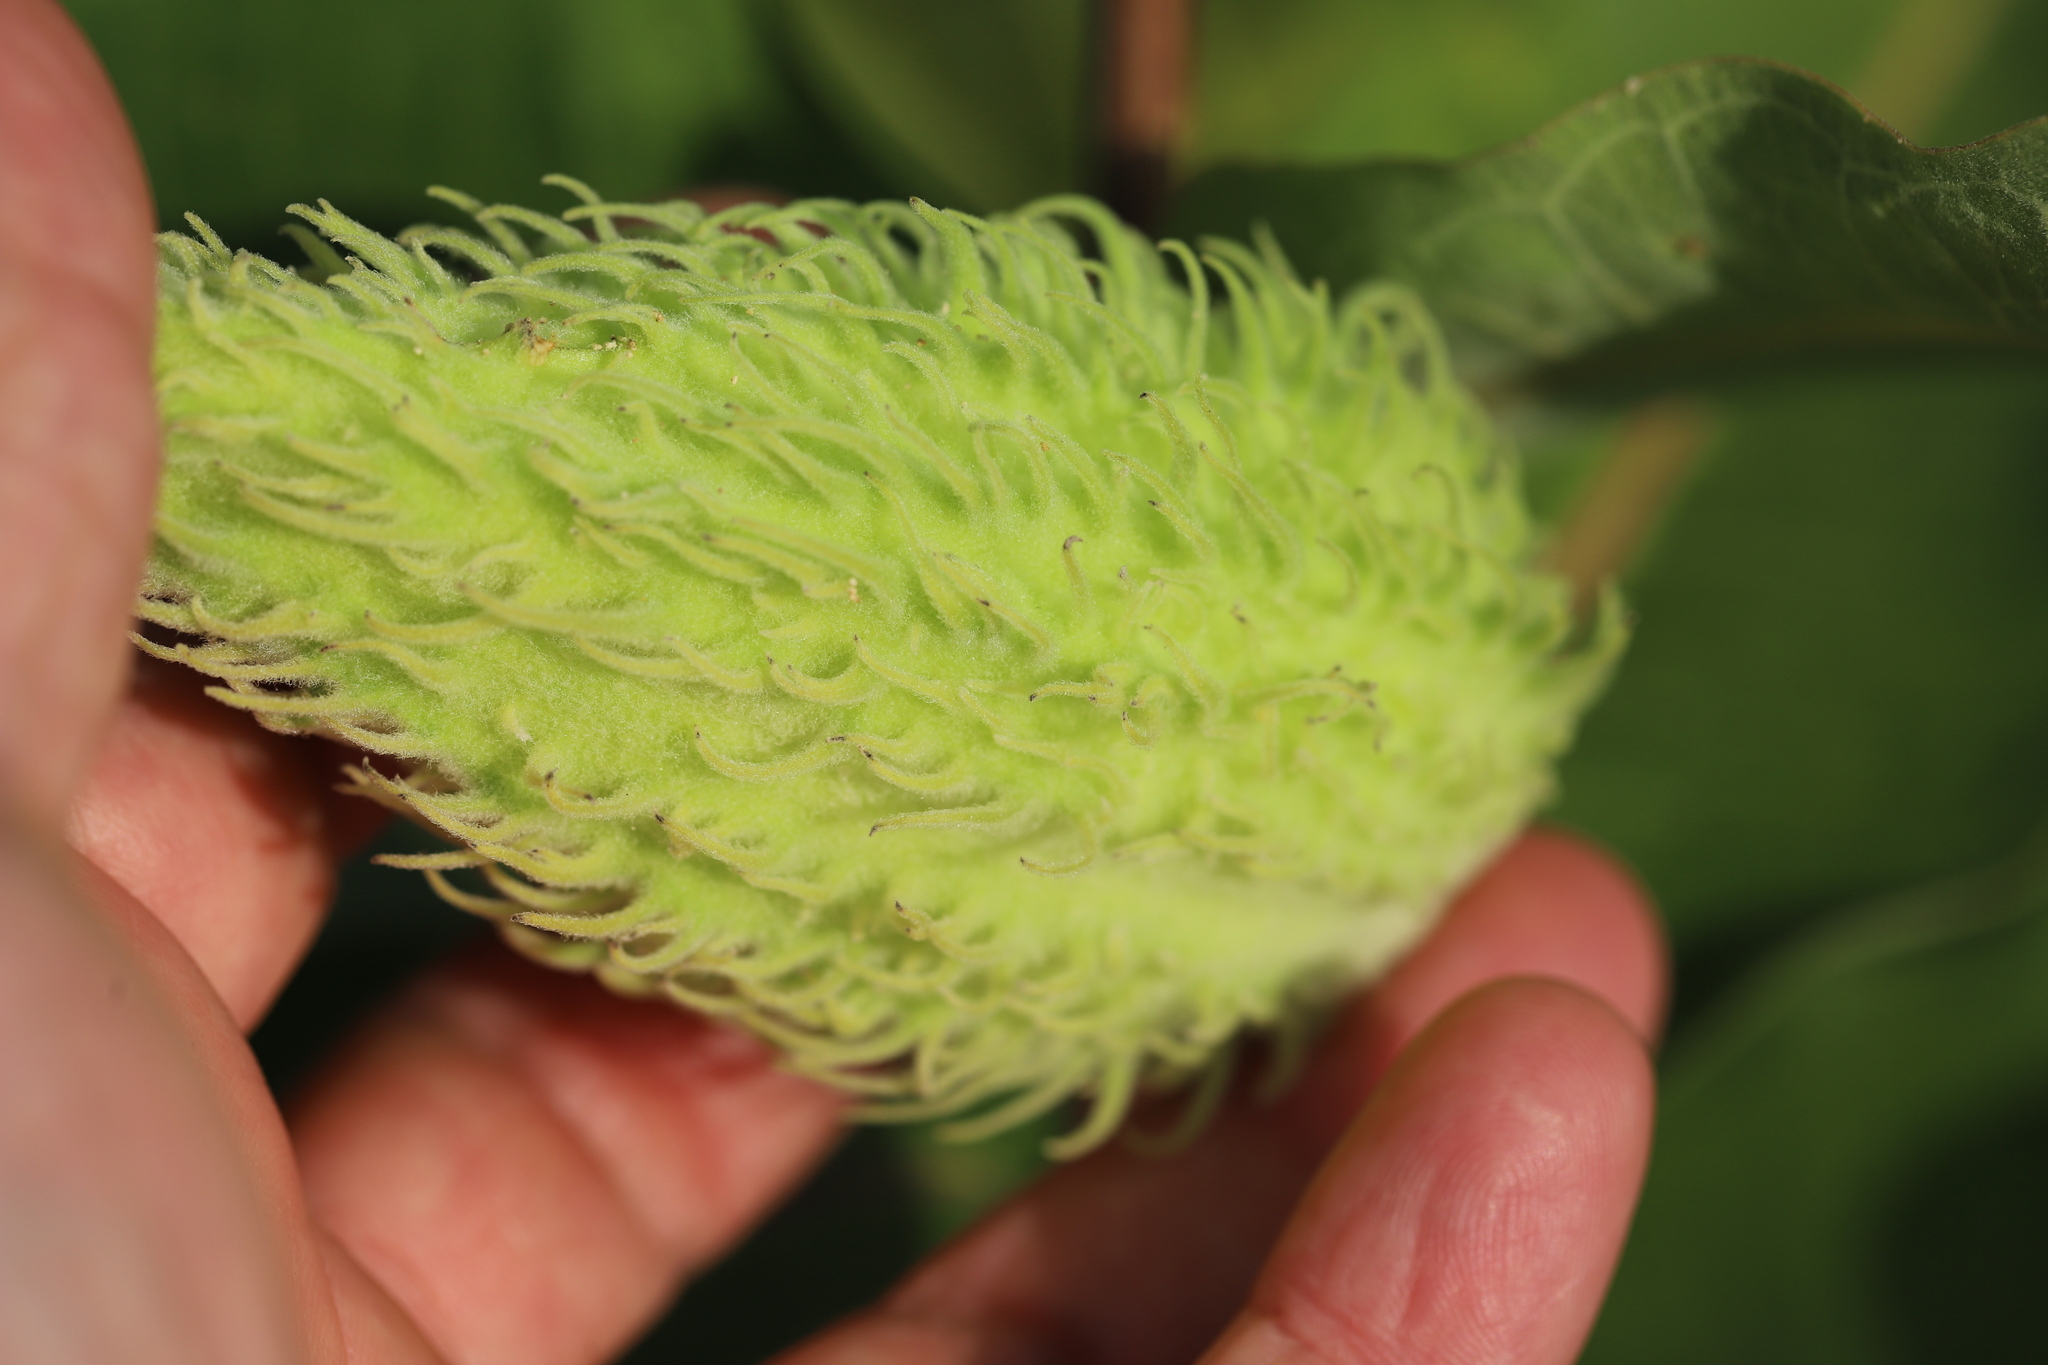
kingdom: Plantae
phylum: Tracheophyta
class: Magnoliopsida
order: Gentianales
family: Apocynaceae
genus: Asclepias
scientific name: Asclepias syriaca
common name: Common milkweed
